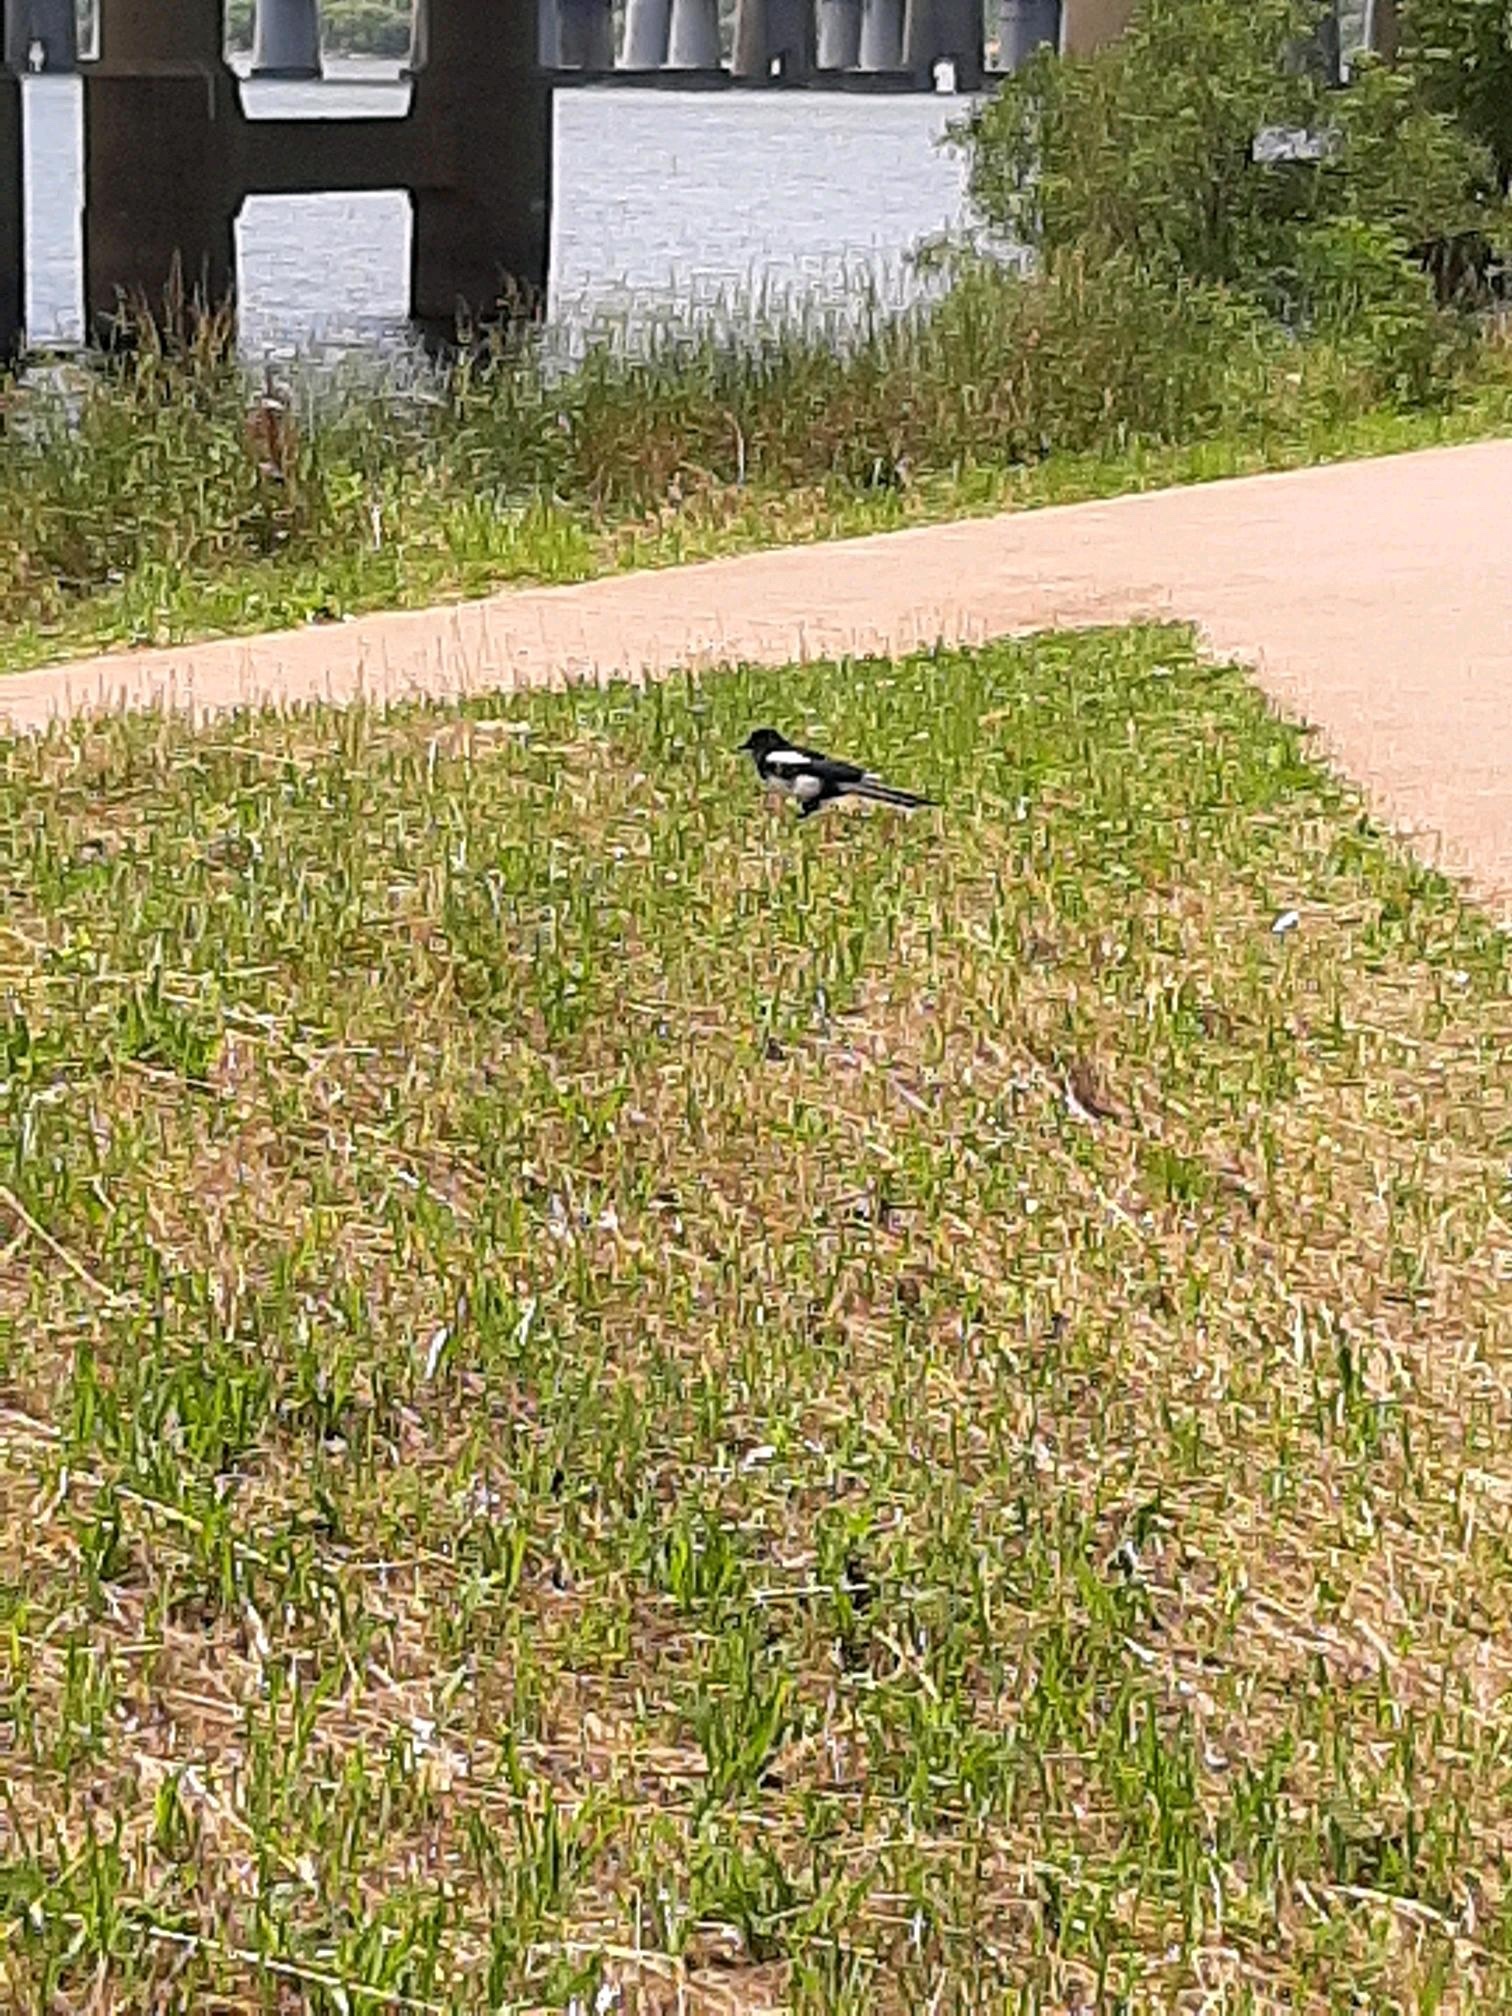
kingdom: Animalia
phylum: Chordata
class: Aves
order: Passeriformes
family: Corvidae
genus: Pica
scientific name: Pica serica
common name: Oriental magpie
